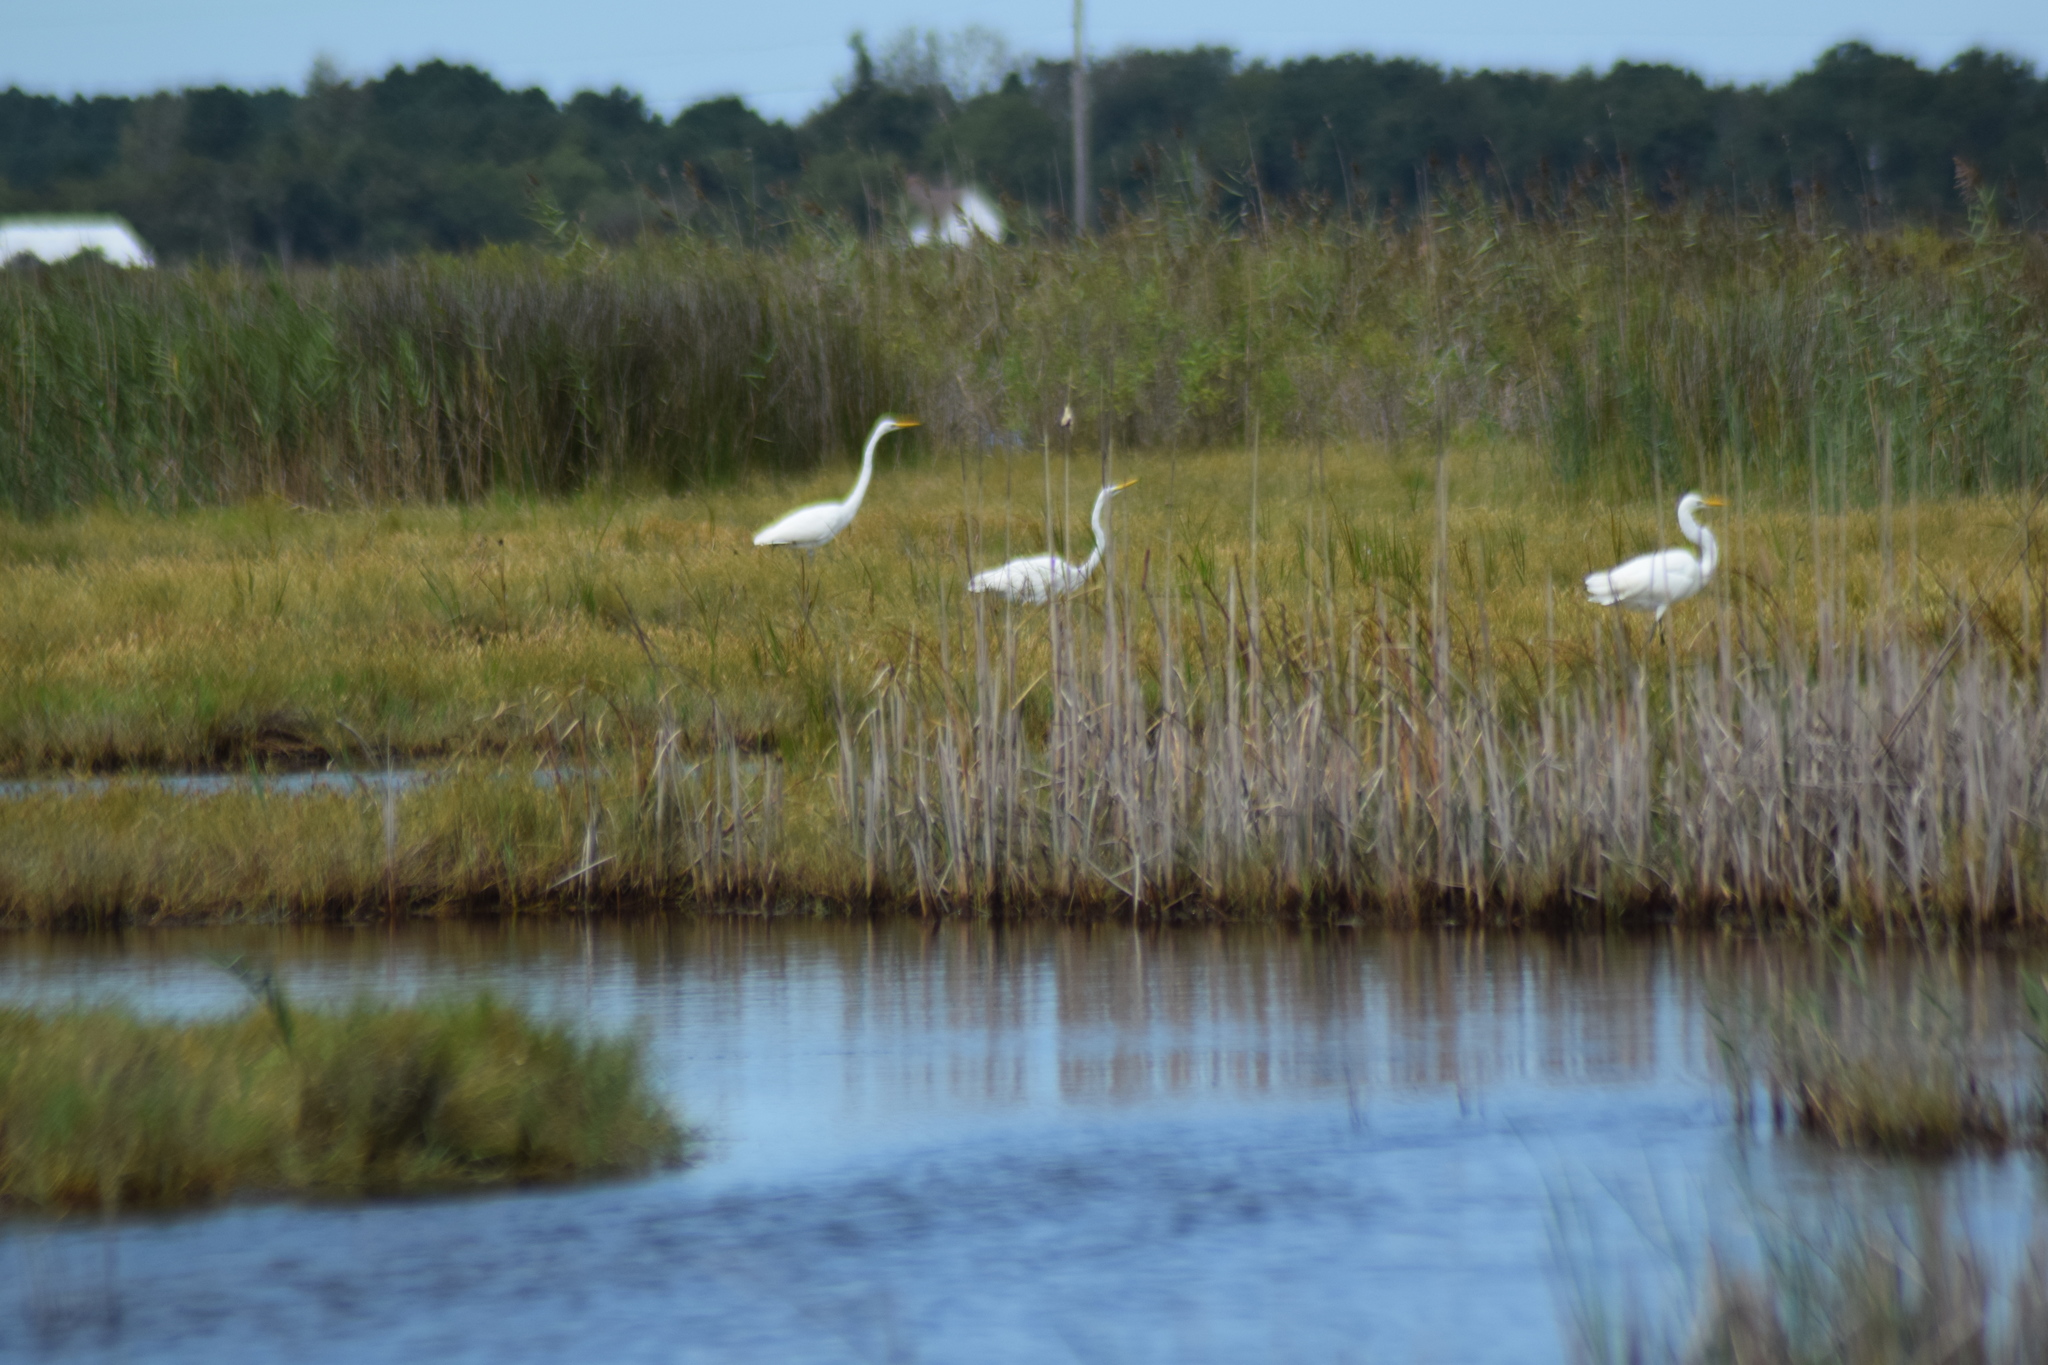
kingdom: Animalia
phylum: Chordata
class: Aves
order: Pelecaniformes
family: Ardeidae
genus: Ardea
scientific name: Ardea alba
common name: Great egret
